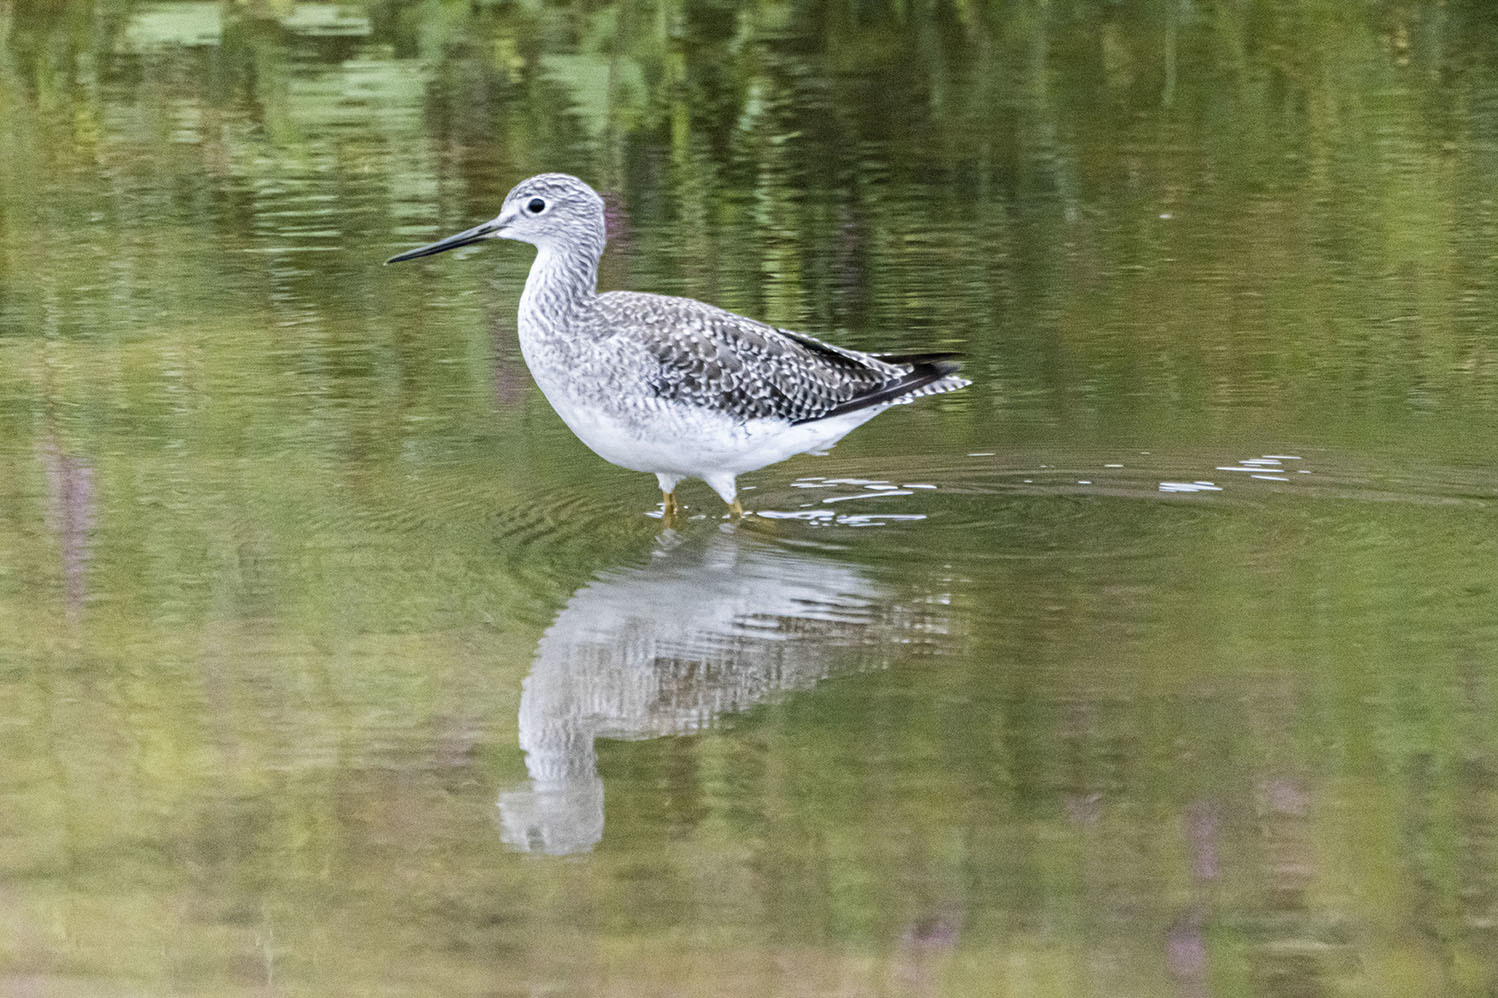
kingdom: Animalia
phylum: Chordata
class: Aves
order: Charadriiformes
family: Scolopacidae
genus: Tringa
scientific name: Tringa melanoleuca
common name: Greater yellowlegs
